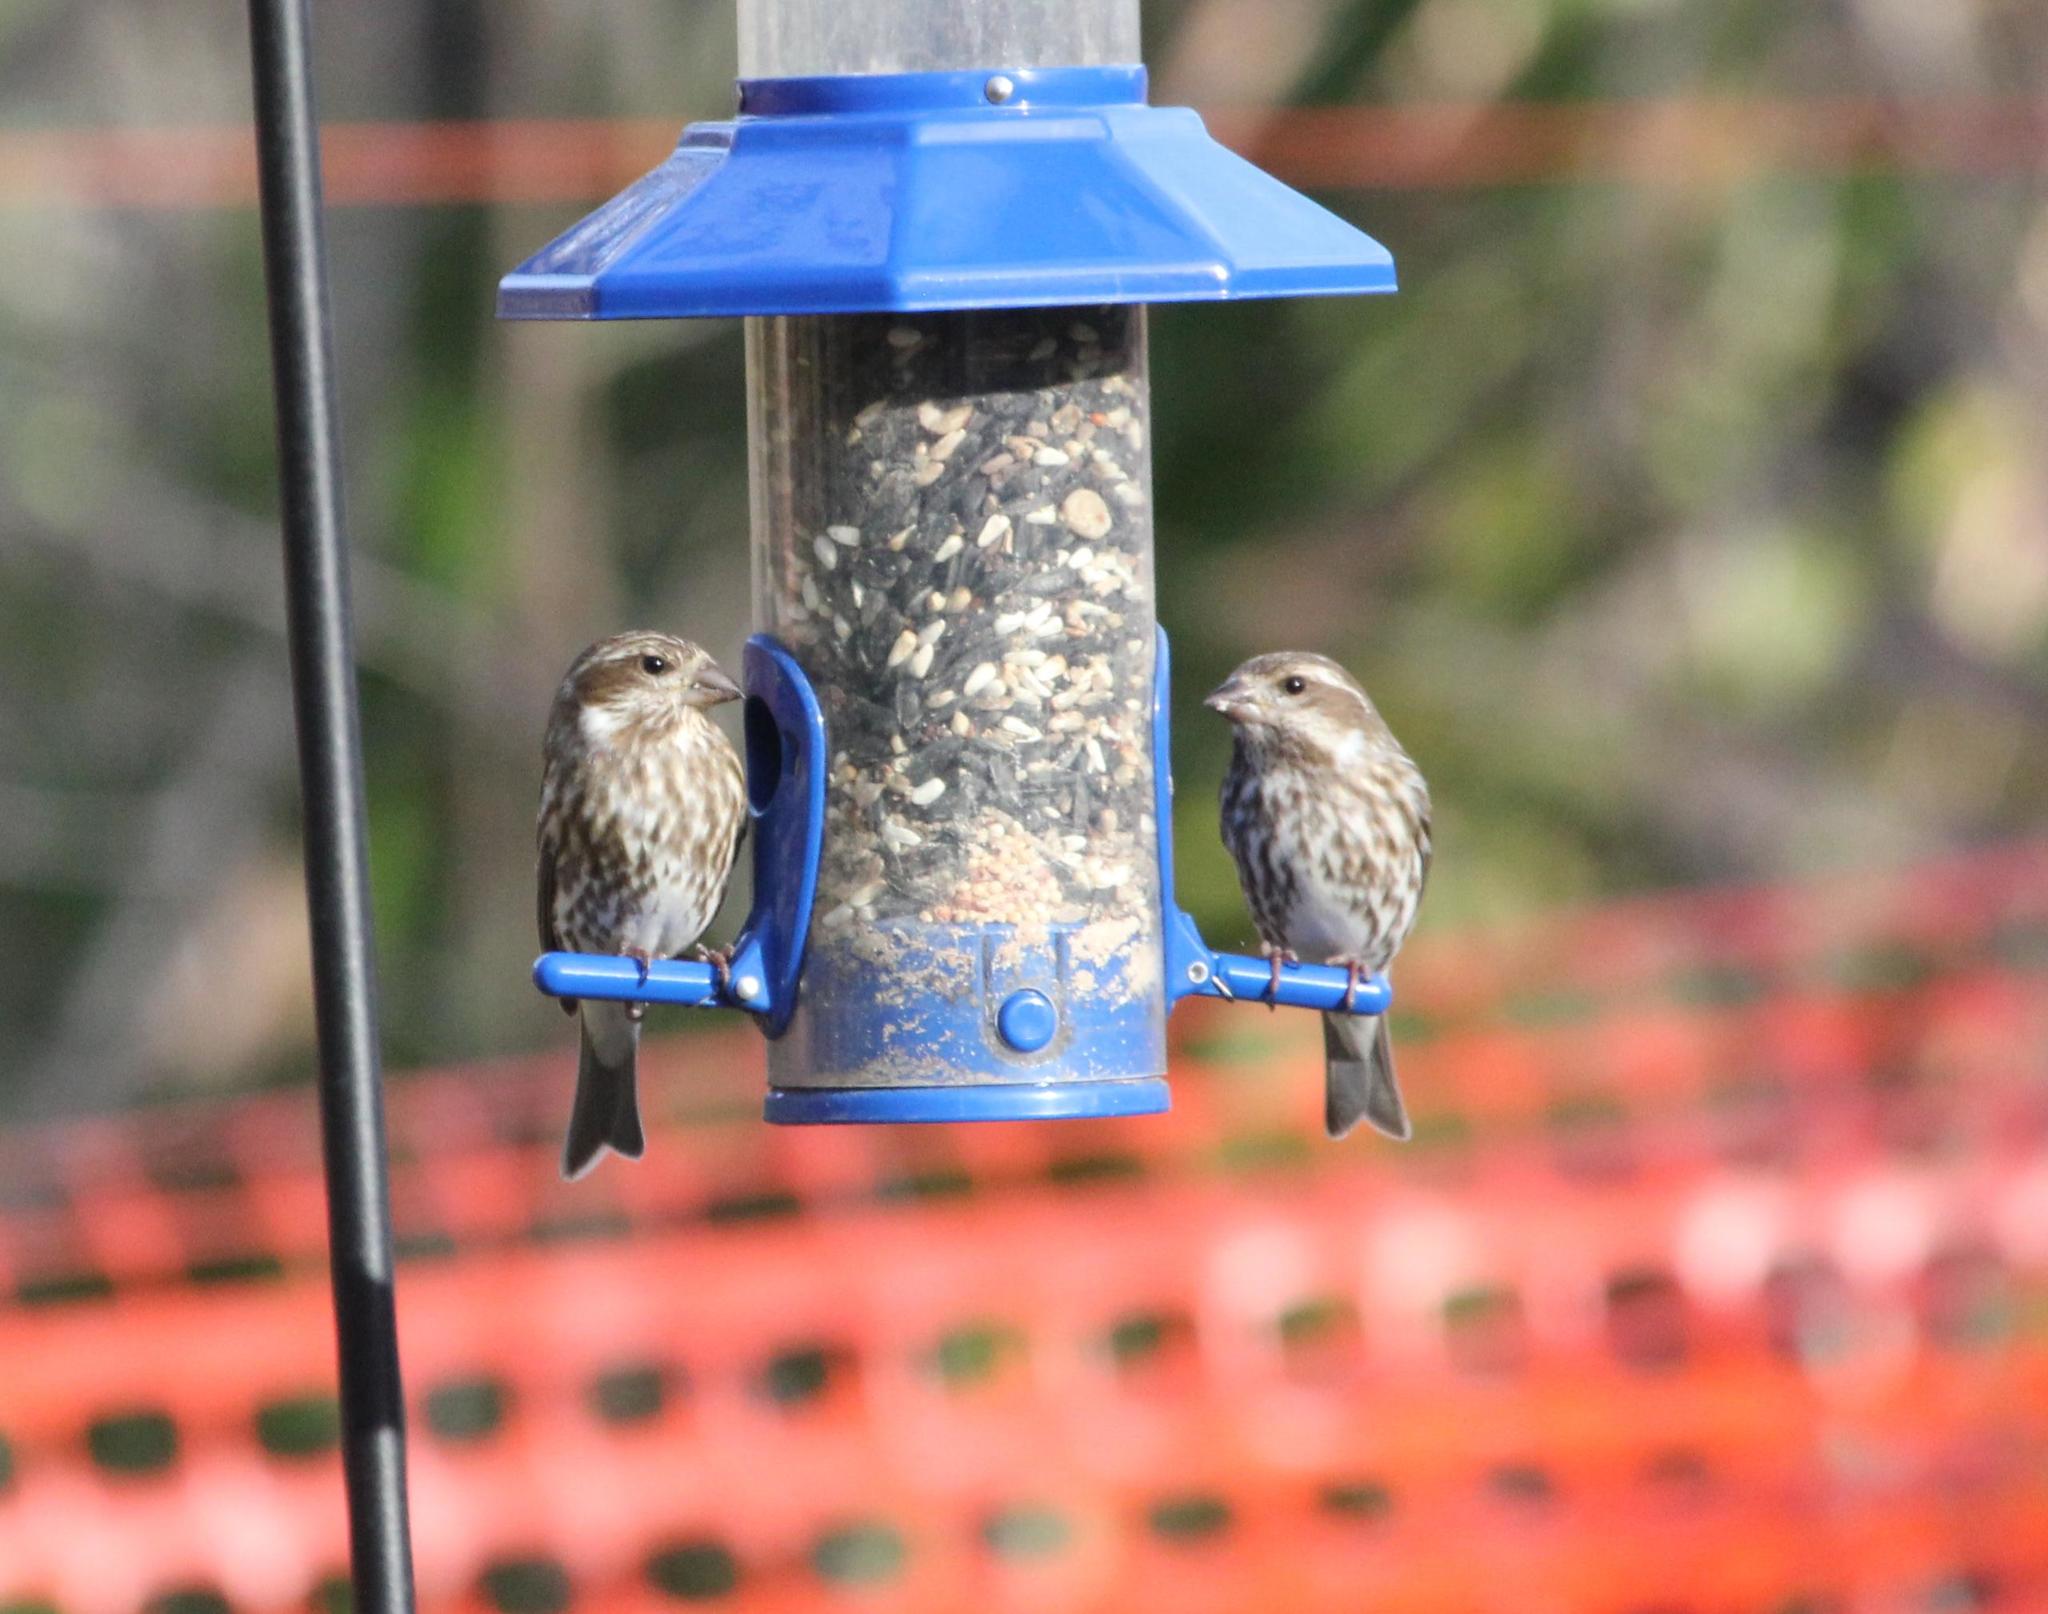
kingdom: Animalia
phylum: Chordata
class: Aves
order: Passeriformes
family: Fringillidae
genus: Haemorhous
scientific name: Haemorhous purpureus
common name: Purple finch
